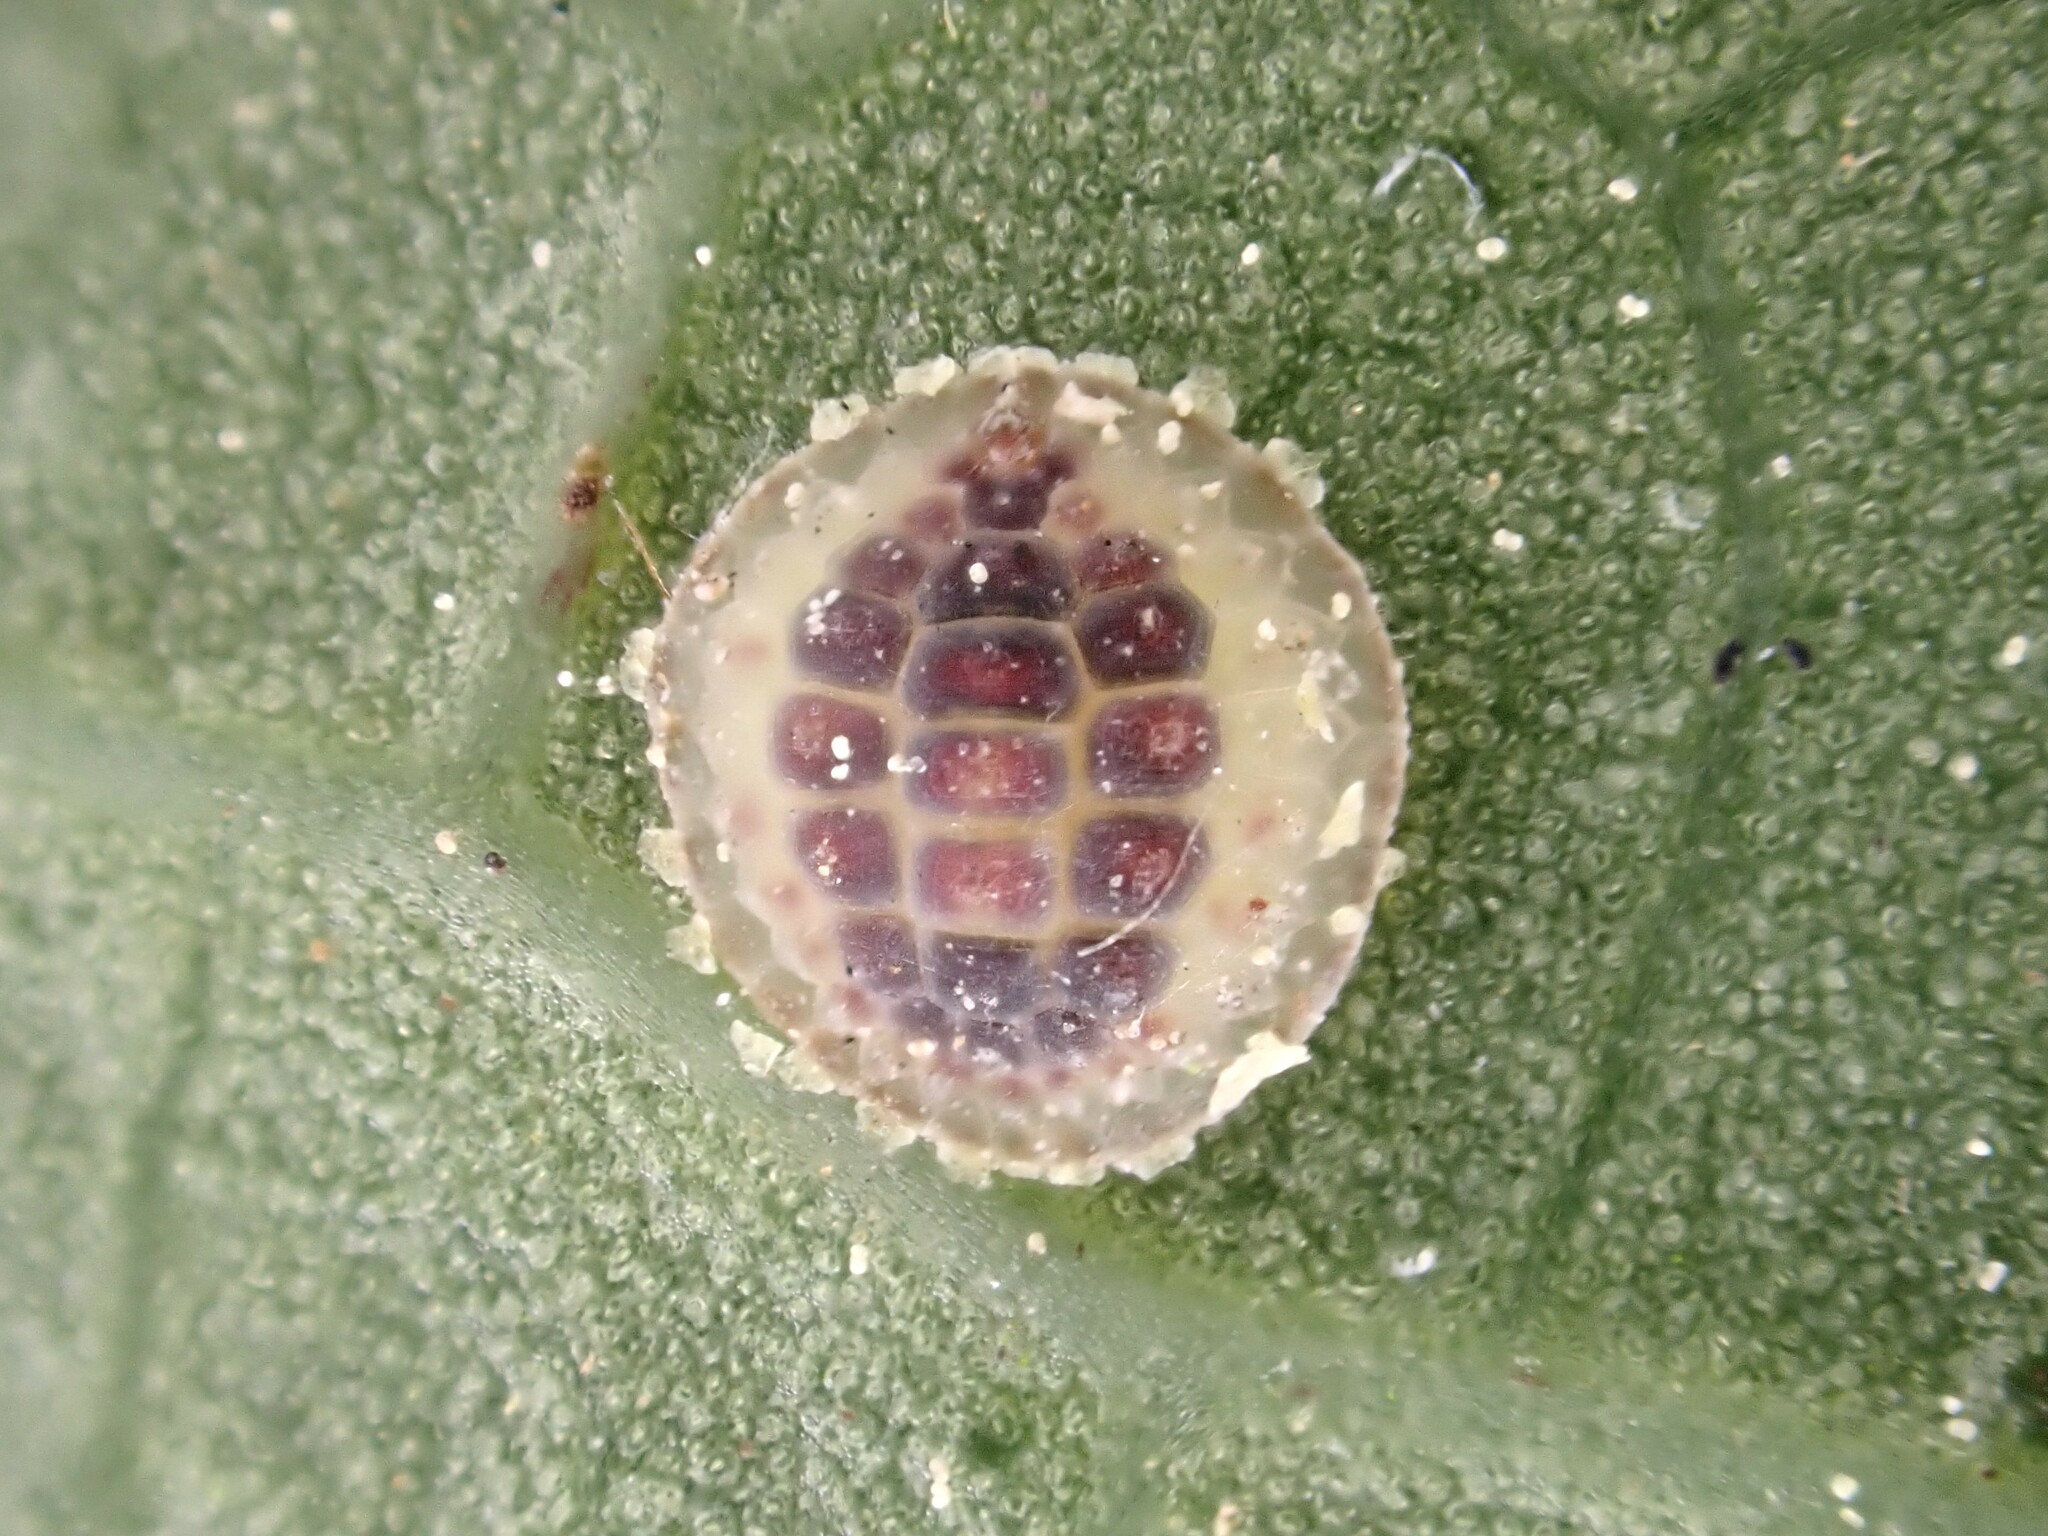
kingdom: Animalia
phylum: Arthropoda
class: Insecta
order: Hemiptera
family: Coccidae
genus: Epelidochiton
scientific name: Epelidochiton piperis
